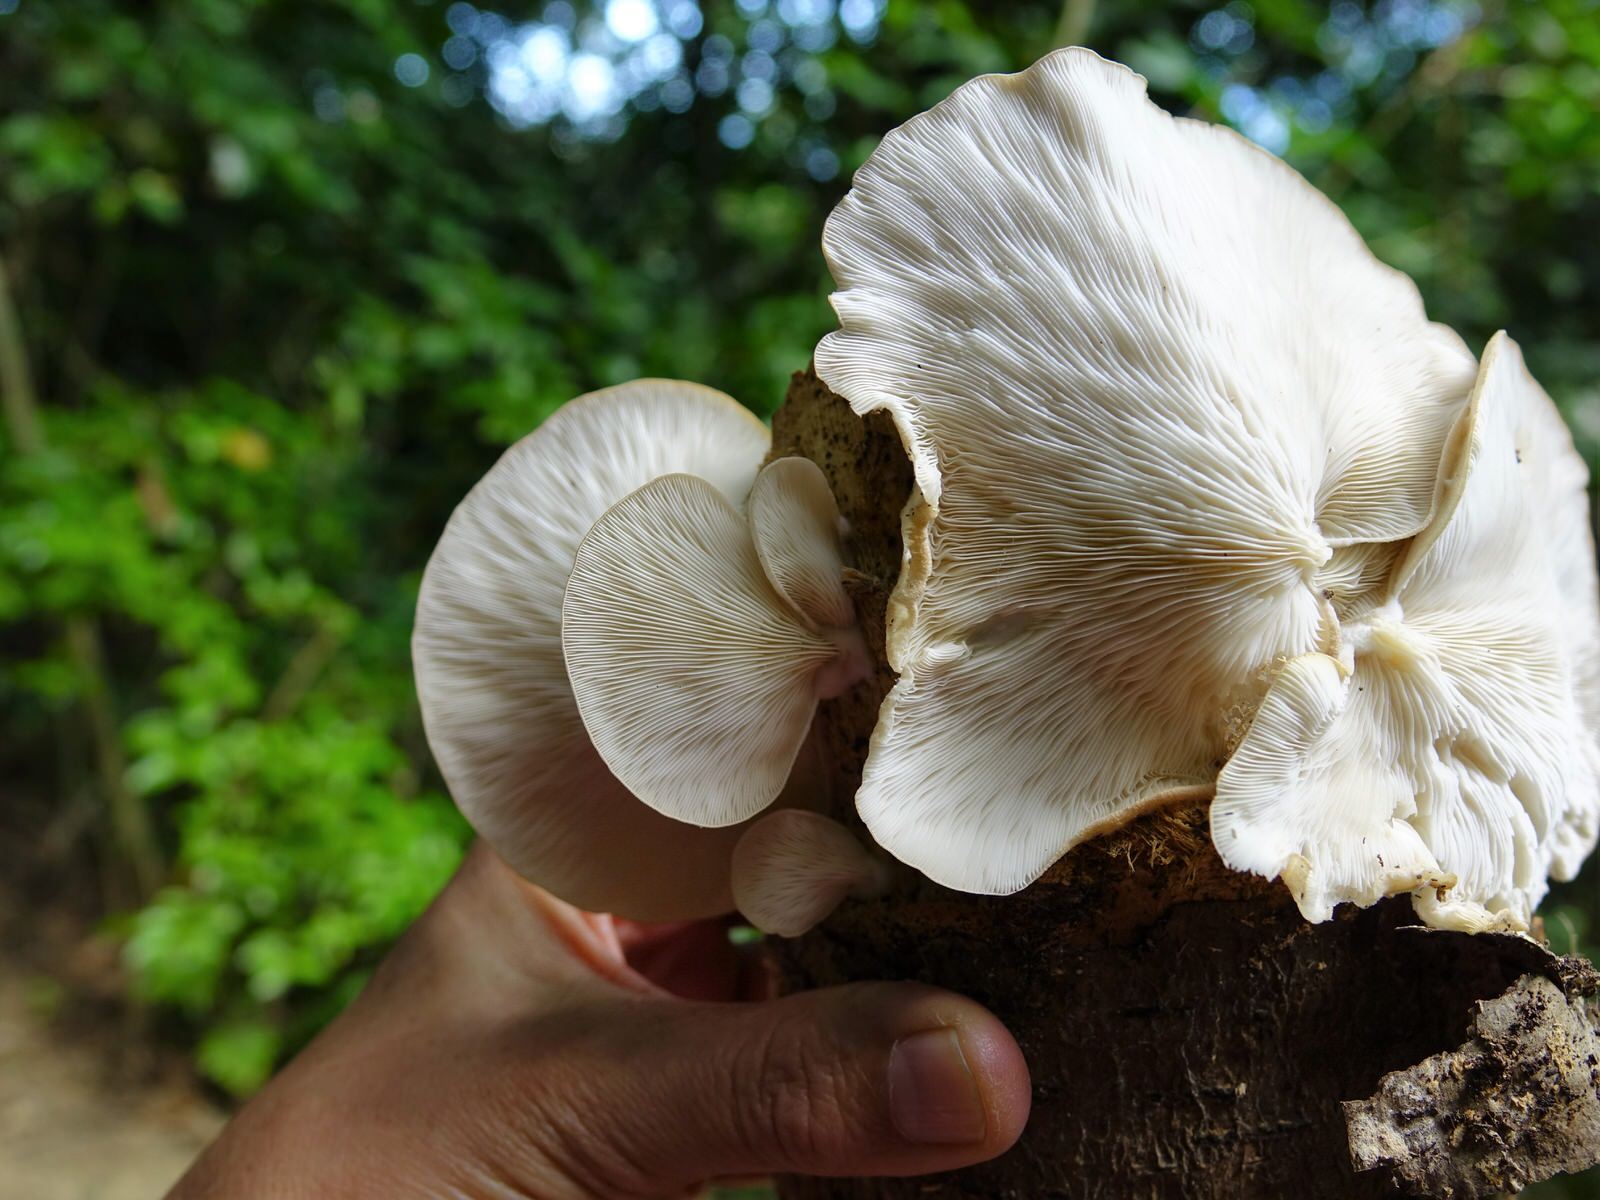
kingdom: Fungi
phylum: Basidiomycota
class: Agaricomycetes
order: Agaricales
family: Pleurotaceae
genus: Pleurotus
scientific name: Pleurotus parsonsiae
